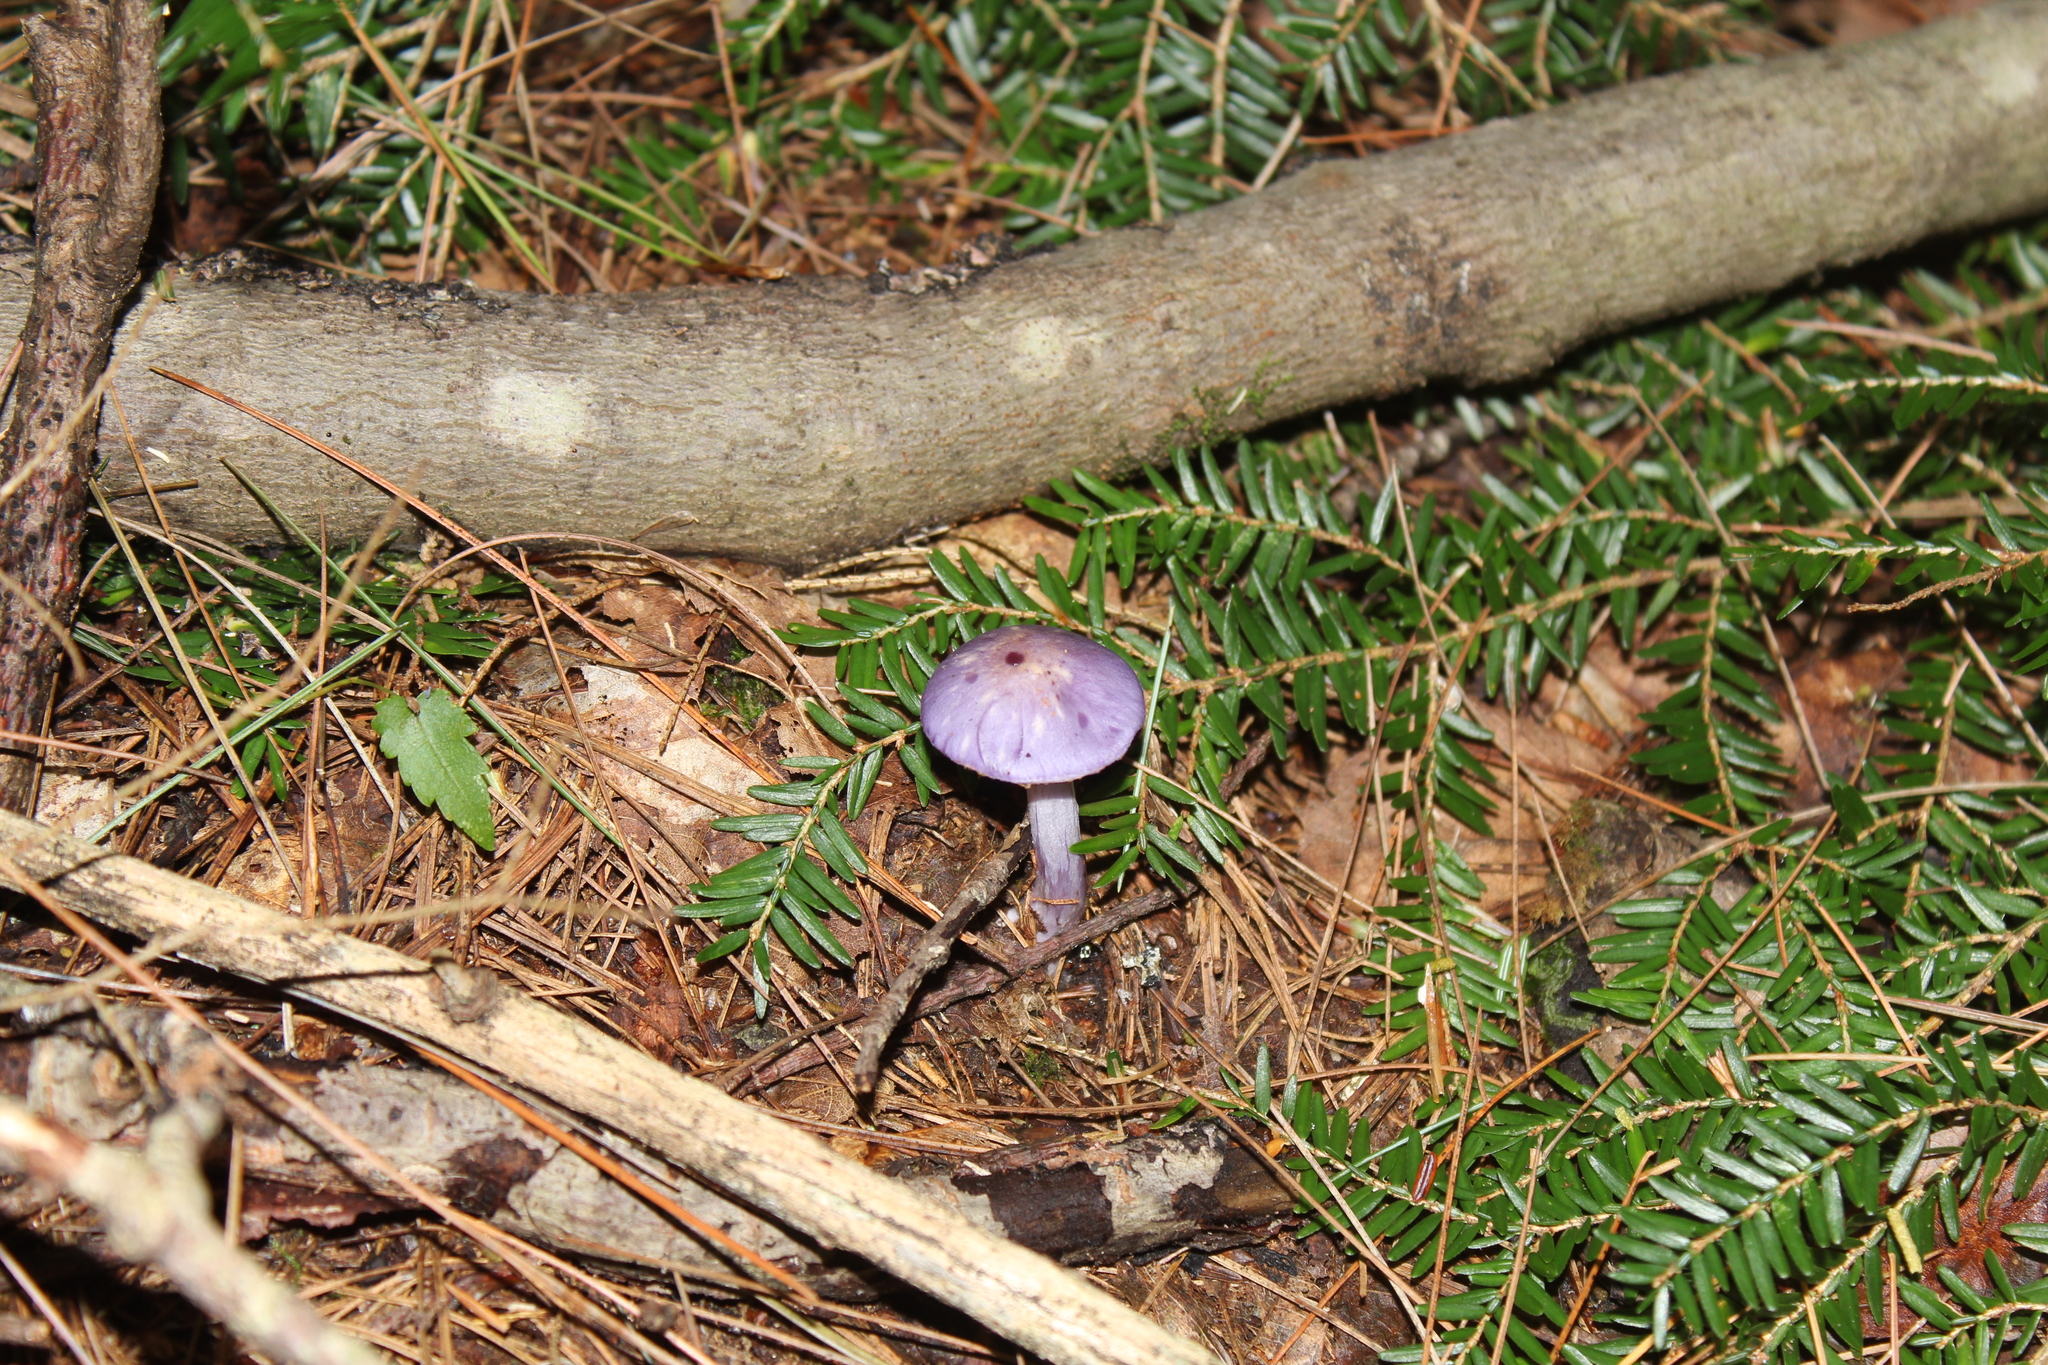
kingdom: Fungi
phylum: Basidiomycota
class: Agaricomycetes
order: Agaricales
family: Cortinariaceae
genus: Cortinarius
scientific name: Cortinarius
